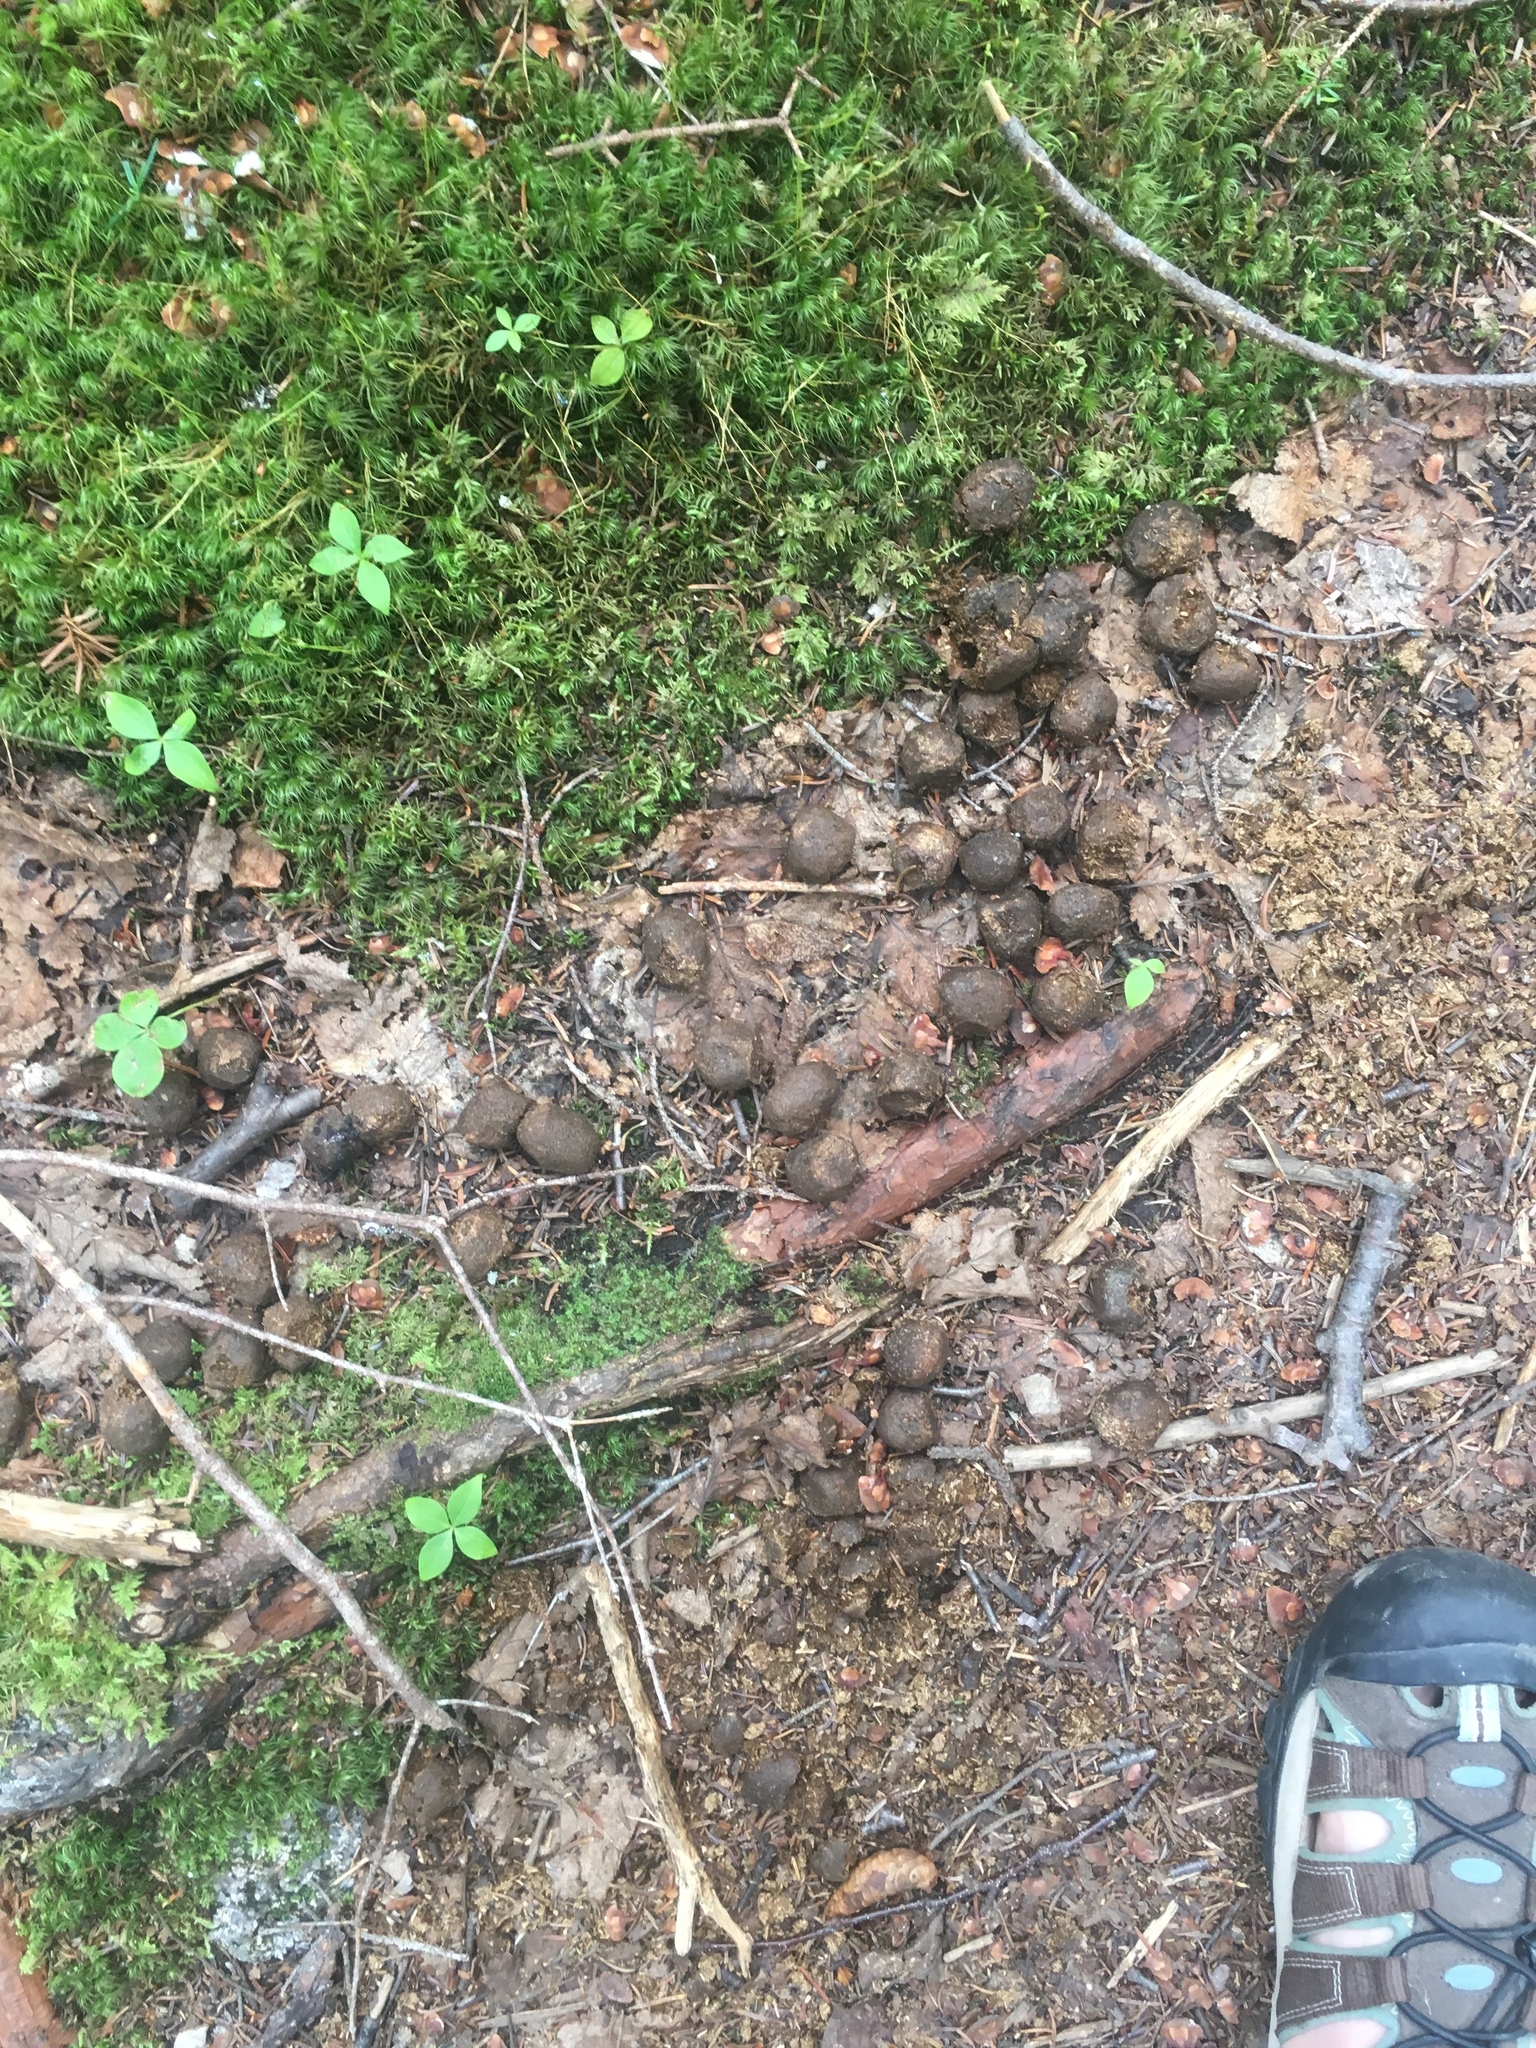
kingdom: Animalia
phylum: Chordata
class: Mammalia
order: Artiodactyla
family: Cervidae
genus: Alces
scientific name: Alces alces
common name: Moose
